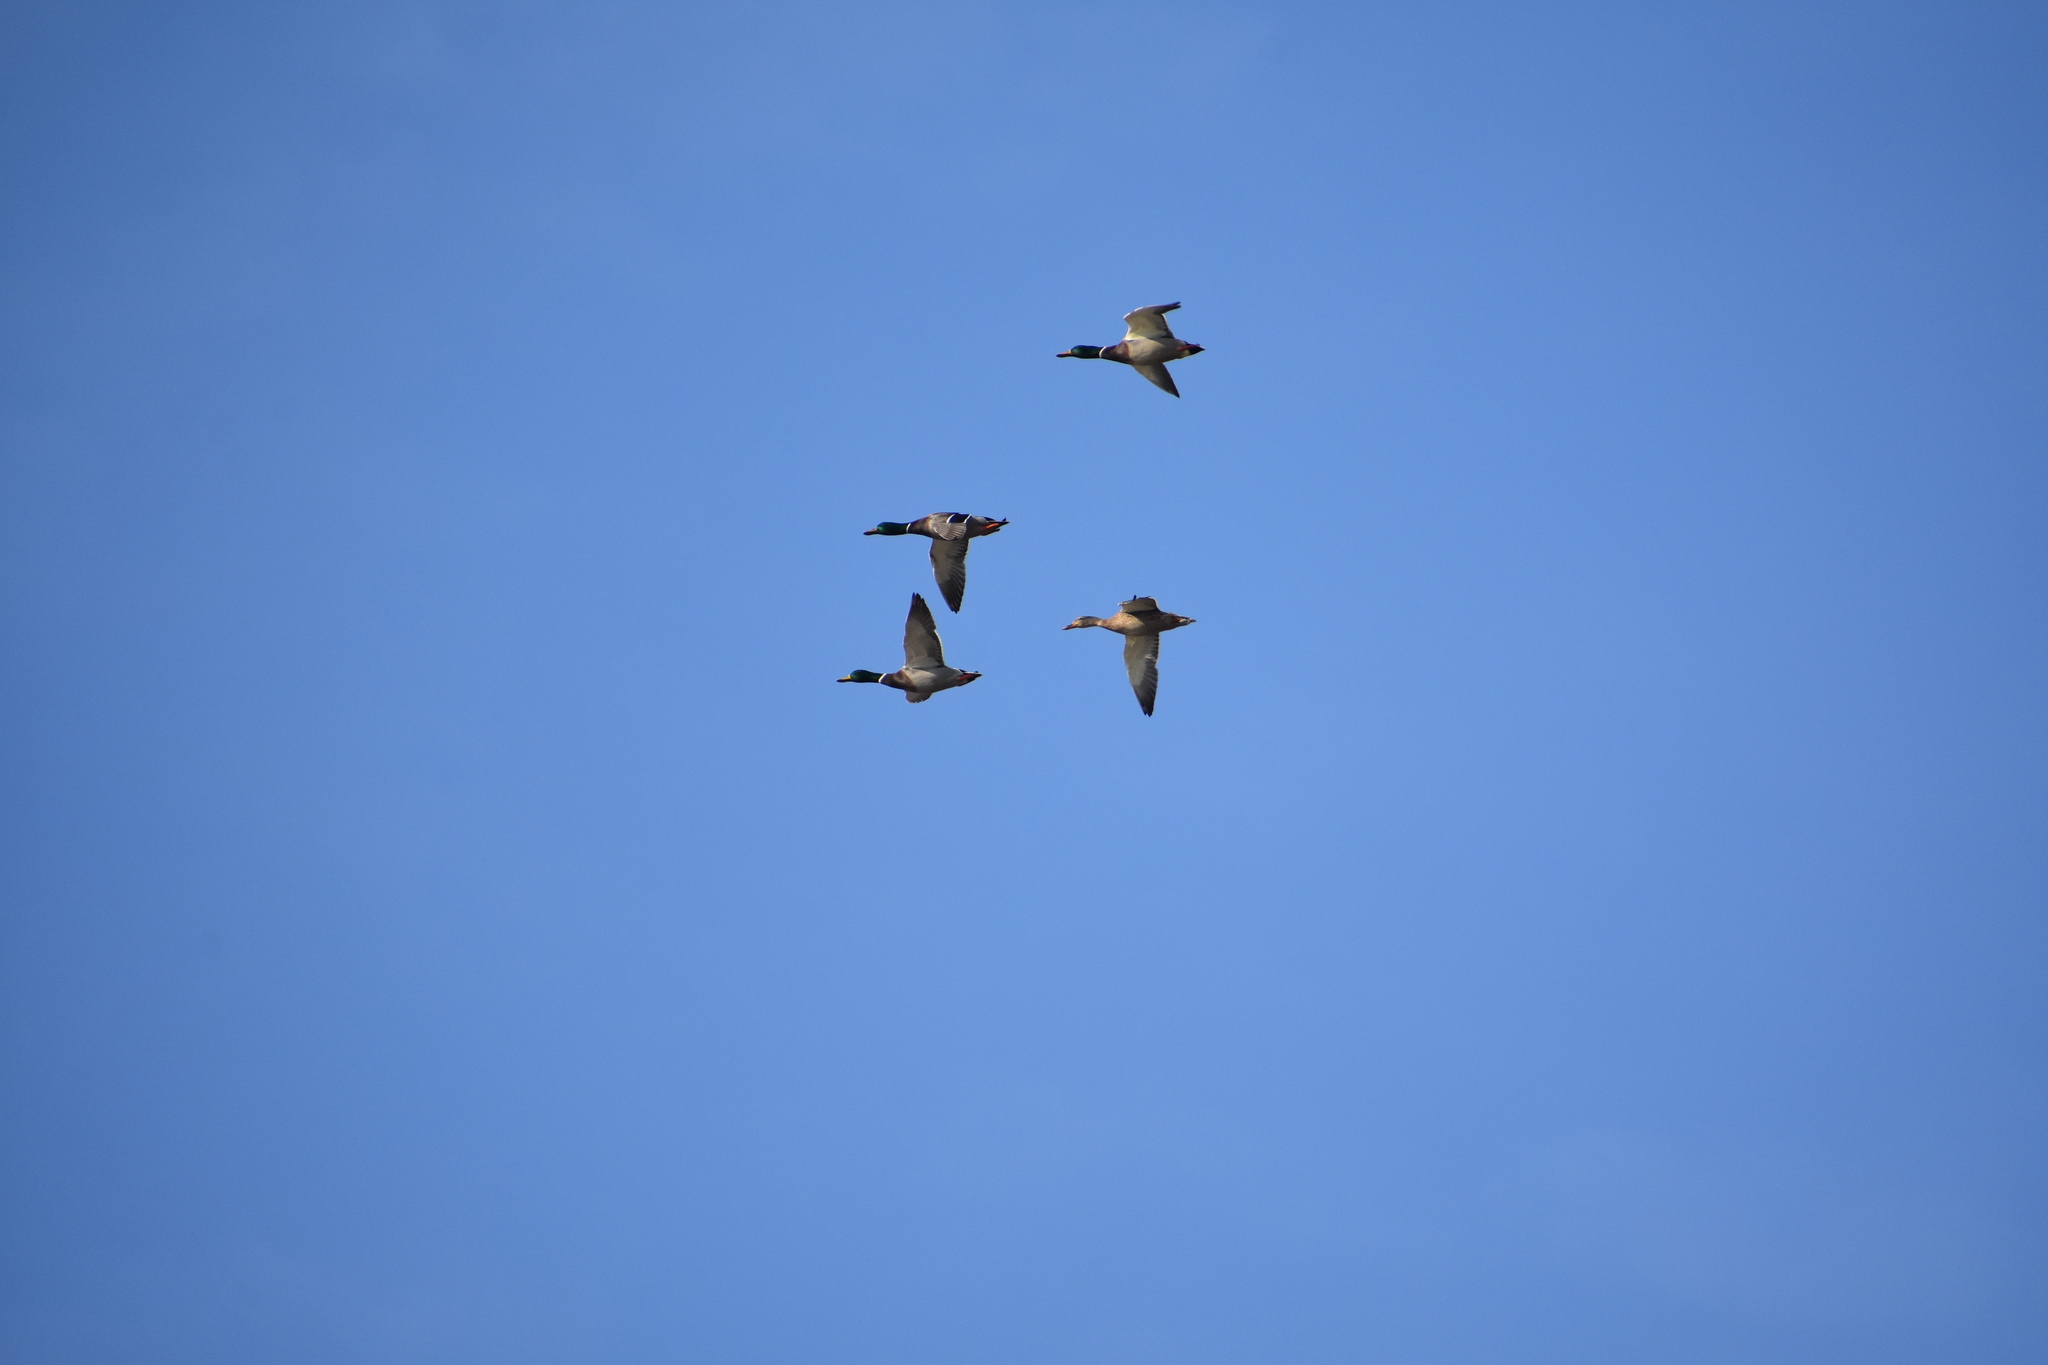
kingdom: Animalia
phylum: Chordata
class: Aves
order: Anseriformes
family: Anatidae
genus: Anas
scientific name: Anas platyrhynchos
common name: Mallard
